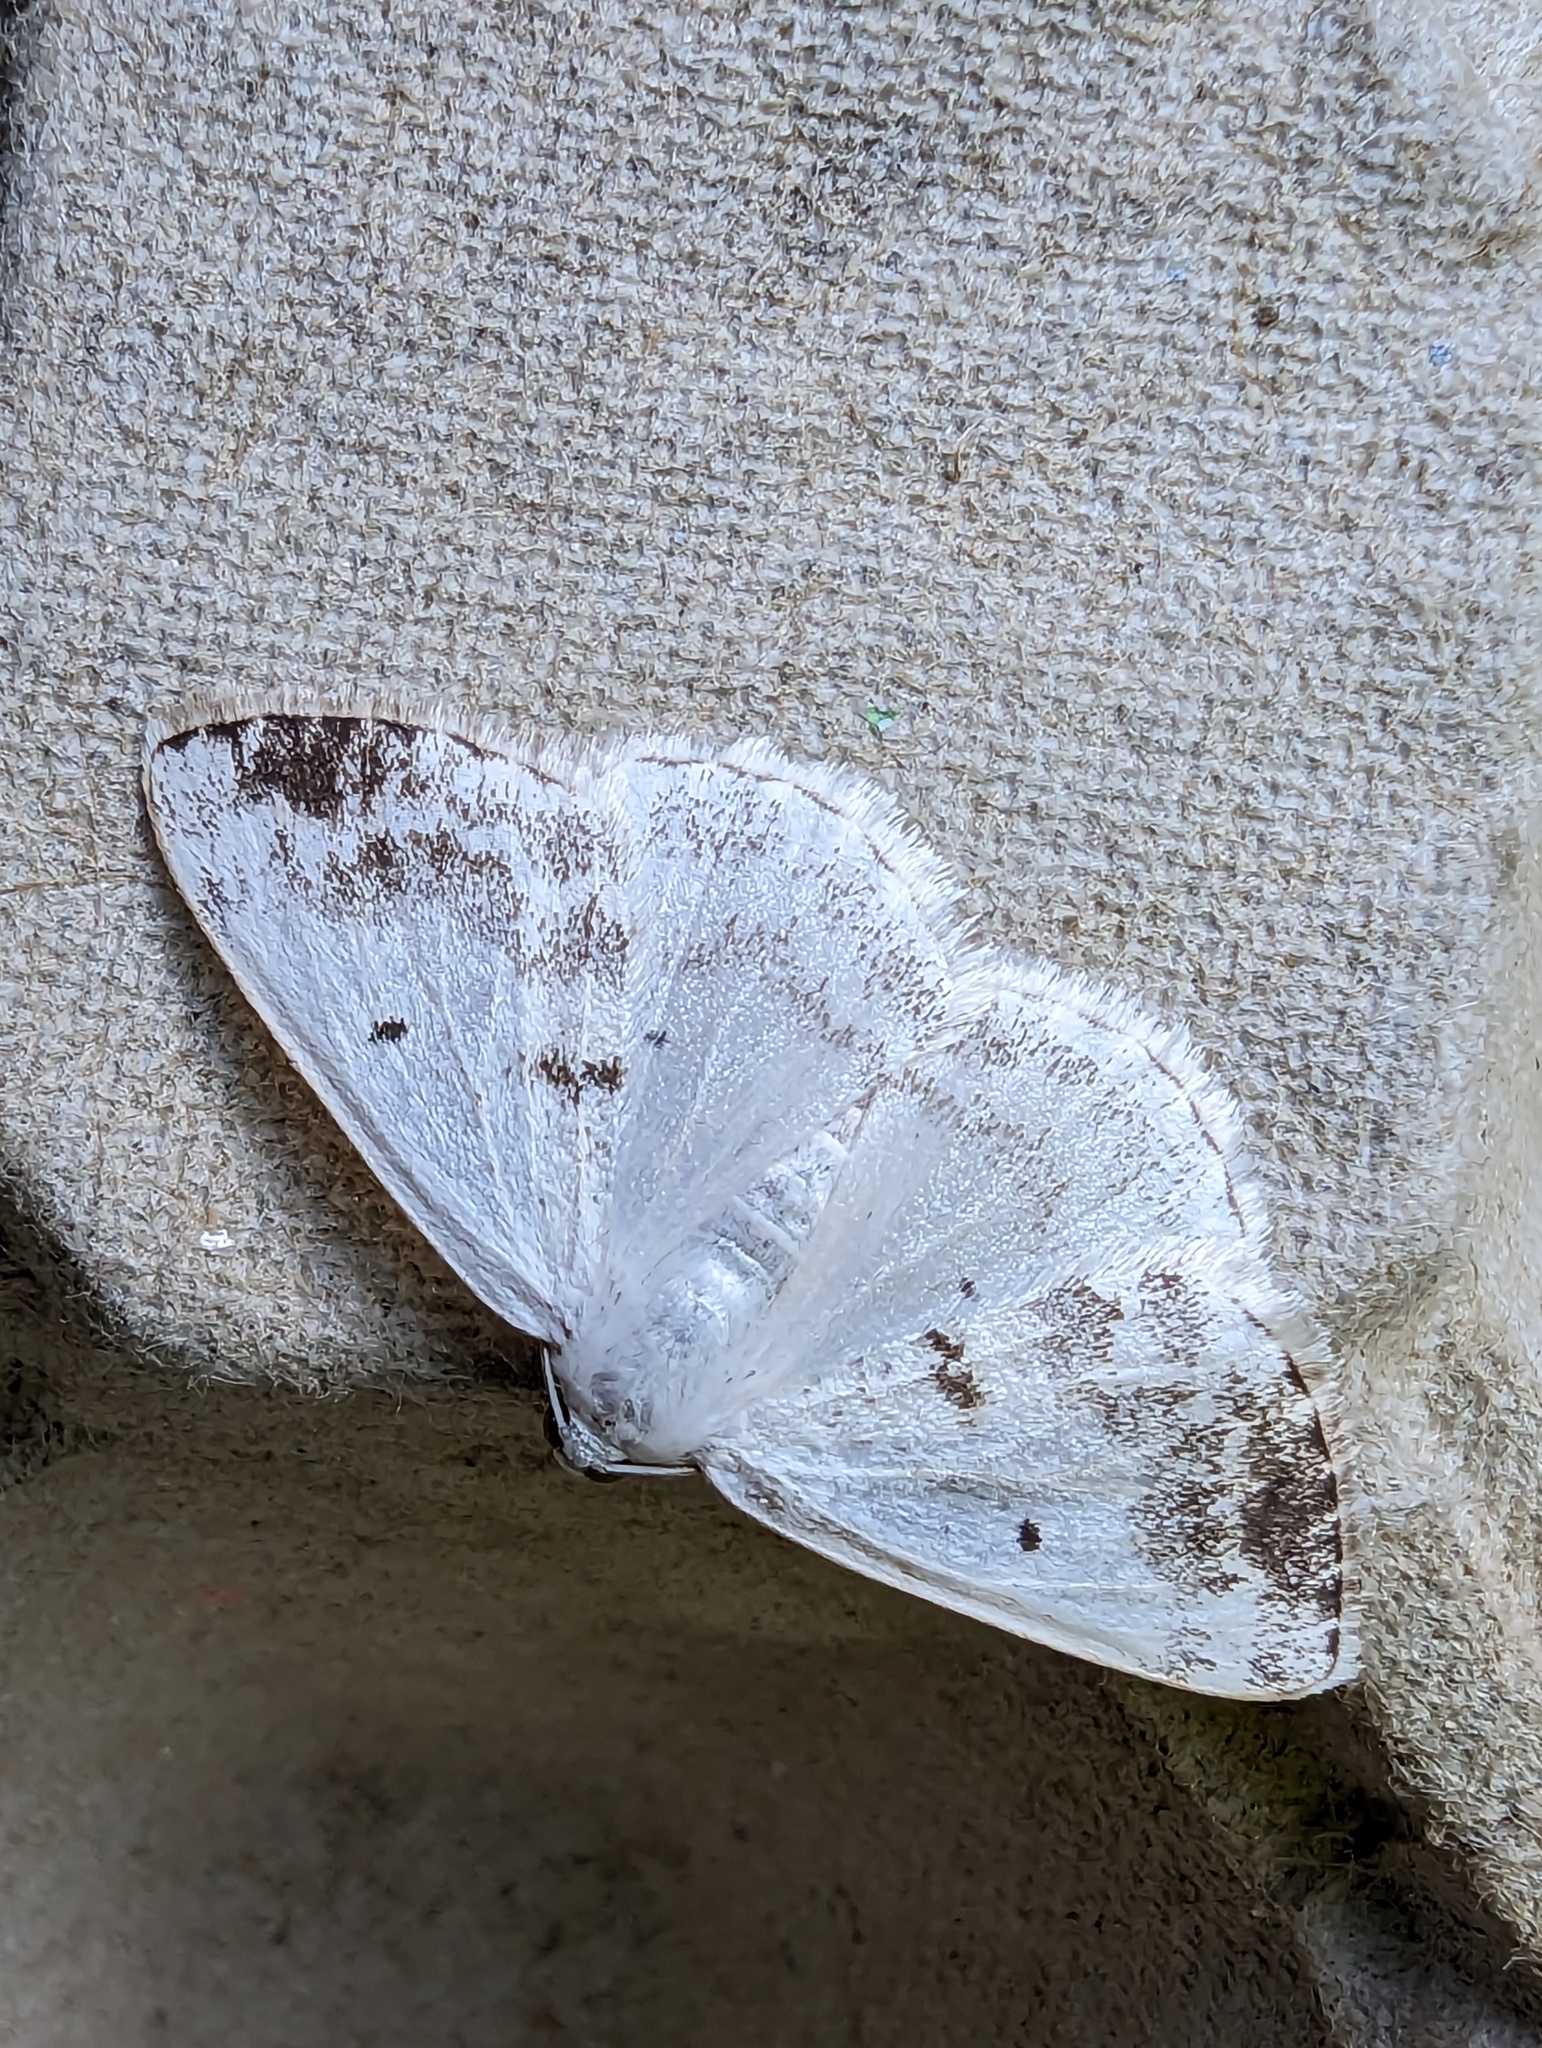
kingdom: Animalia
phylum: Arthropoda
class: Insecta
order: Lepidoptera
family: Geometridae
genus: Lomographa
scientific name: Lomographa temerata
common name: Clouded silver
